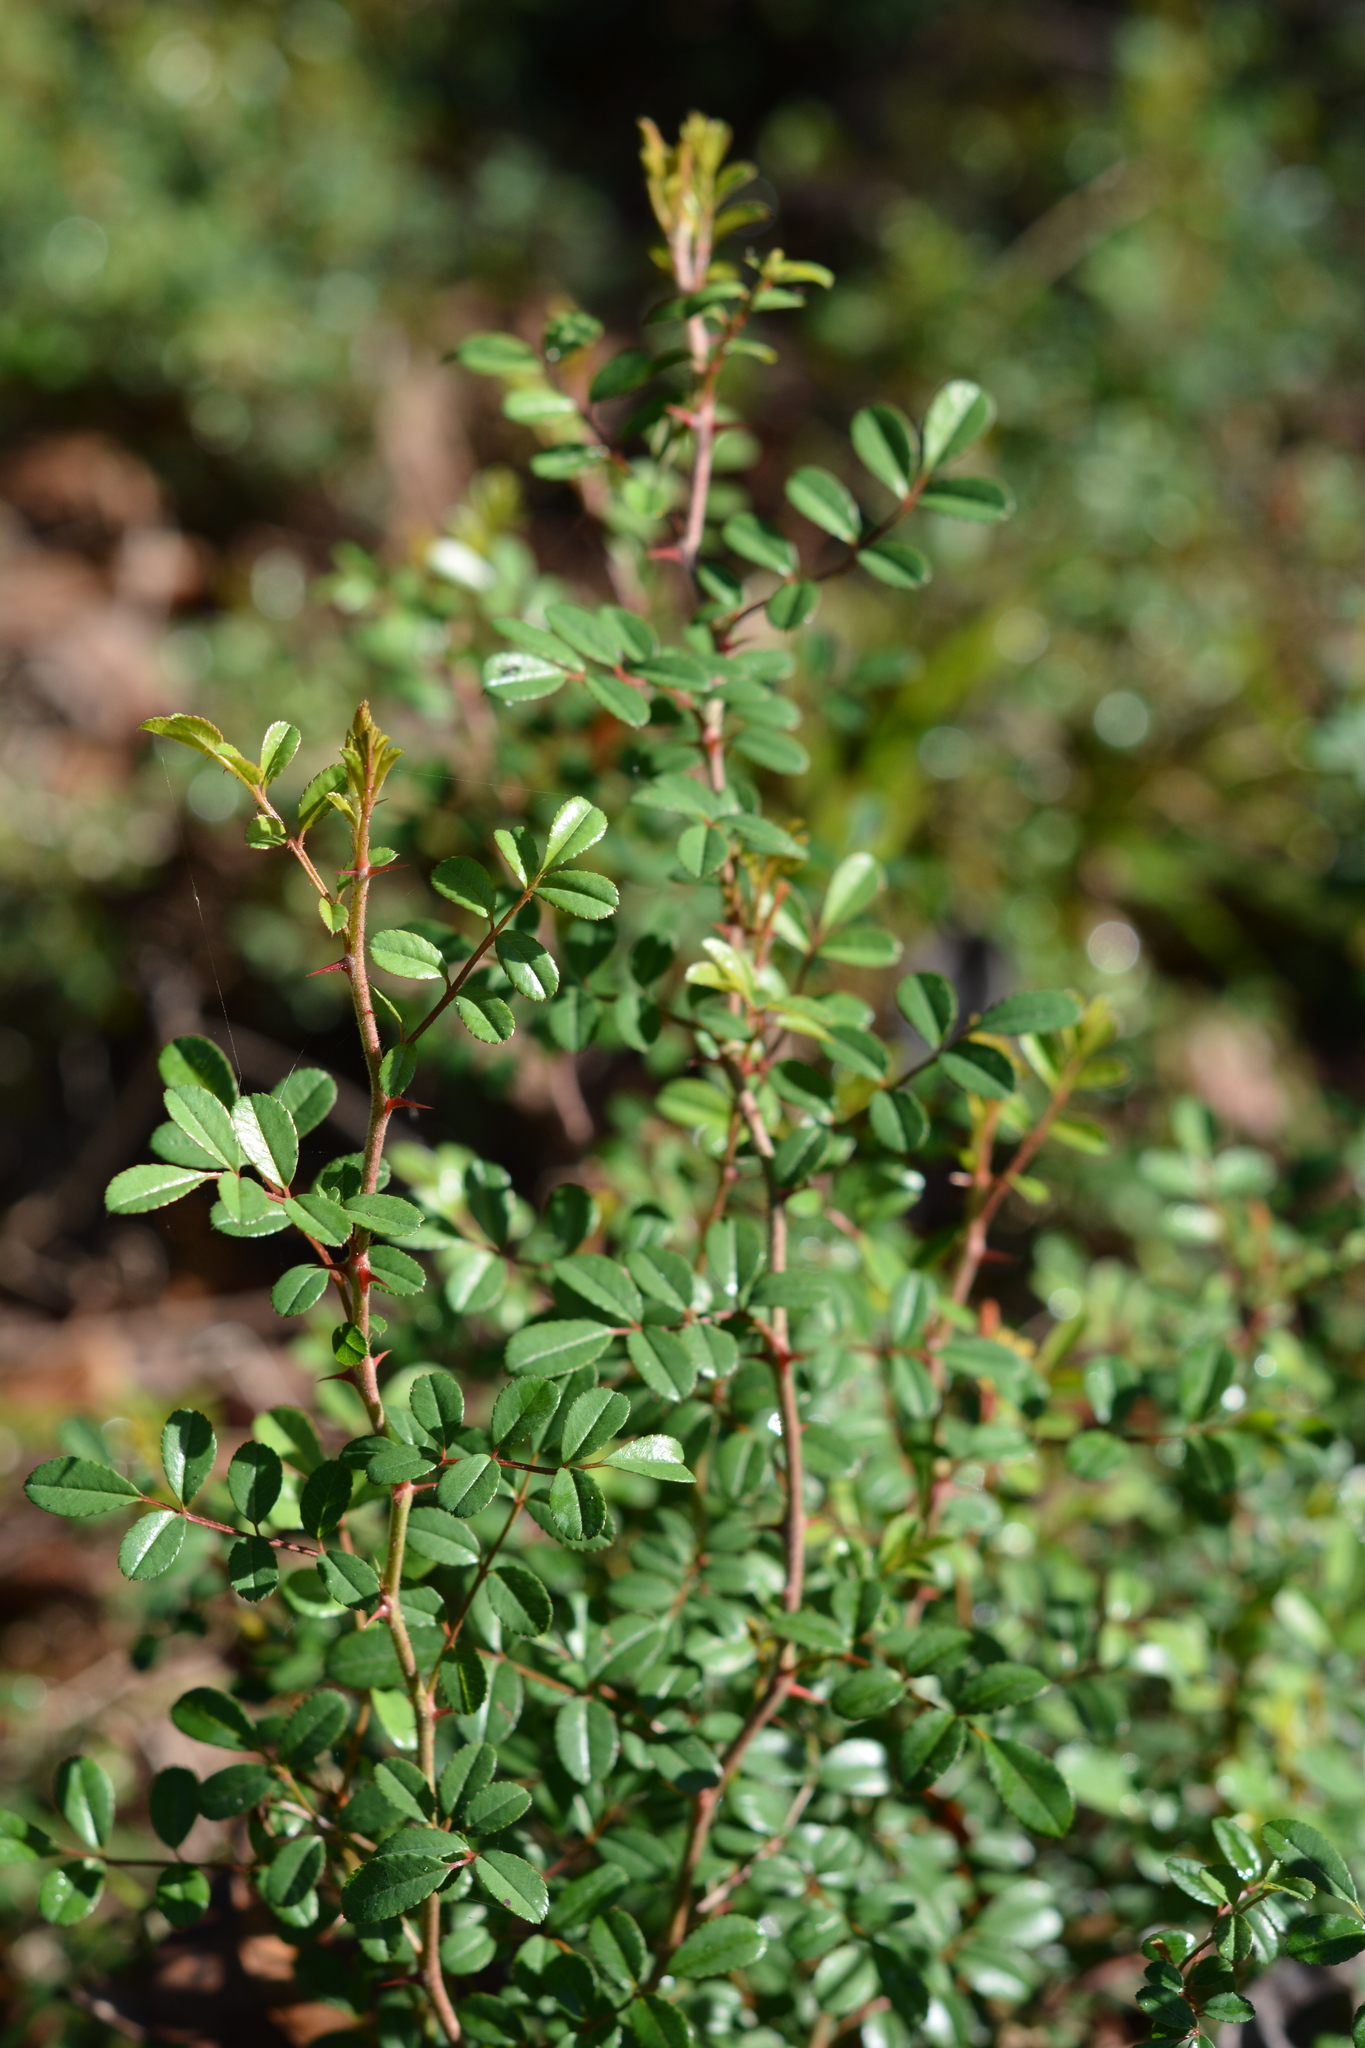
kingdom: Plantae
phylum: Tracheophyta
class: Magnoliopsida
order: Rosales
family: Rosaceae
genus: Rosa
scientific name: Rosa bracteata
